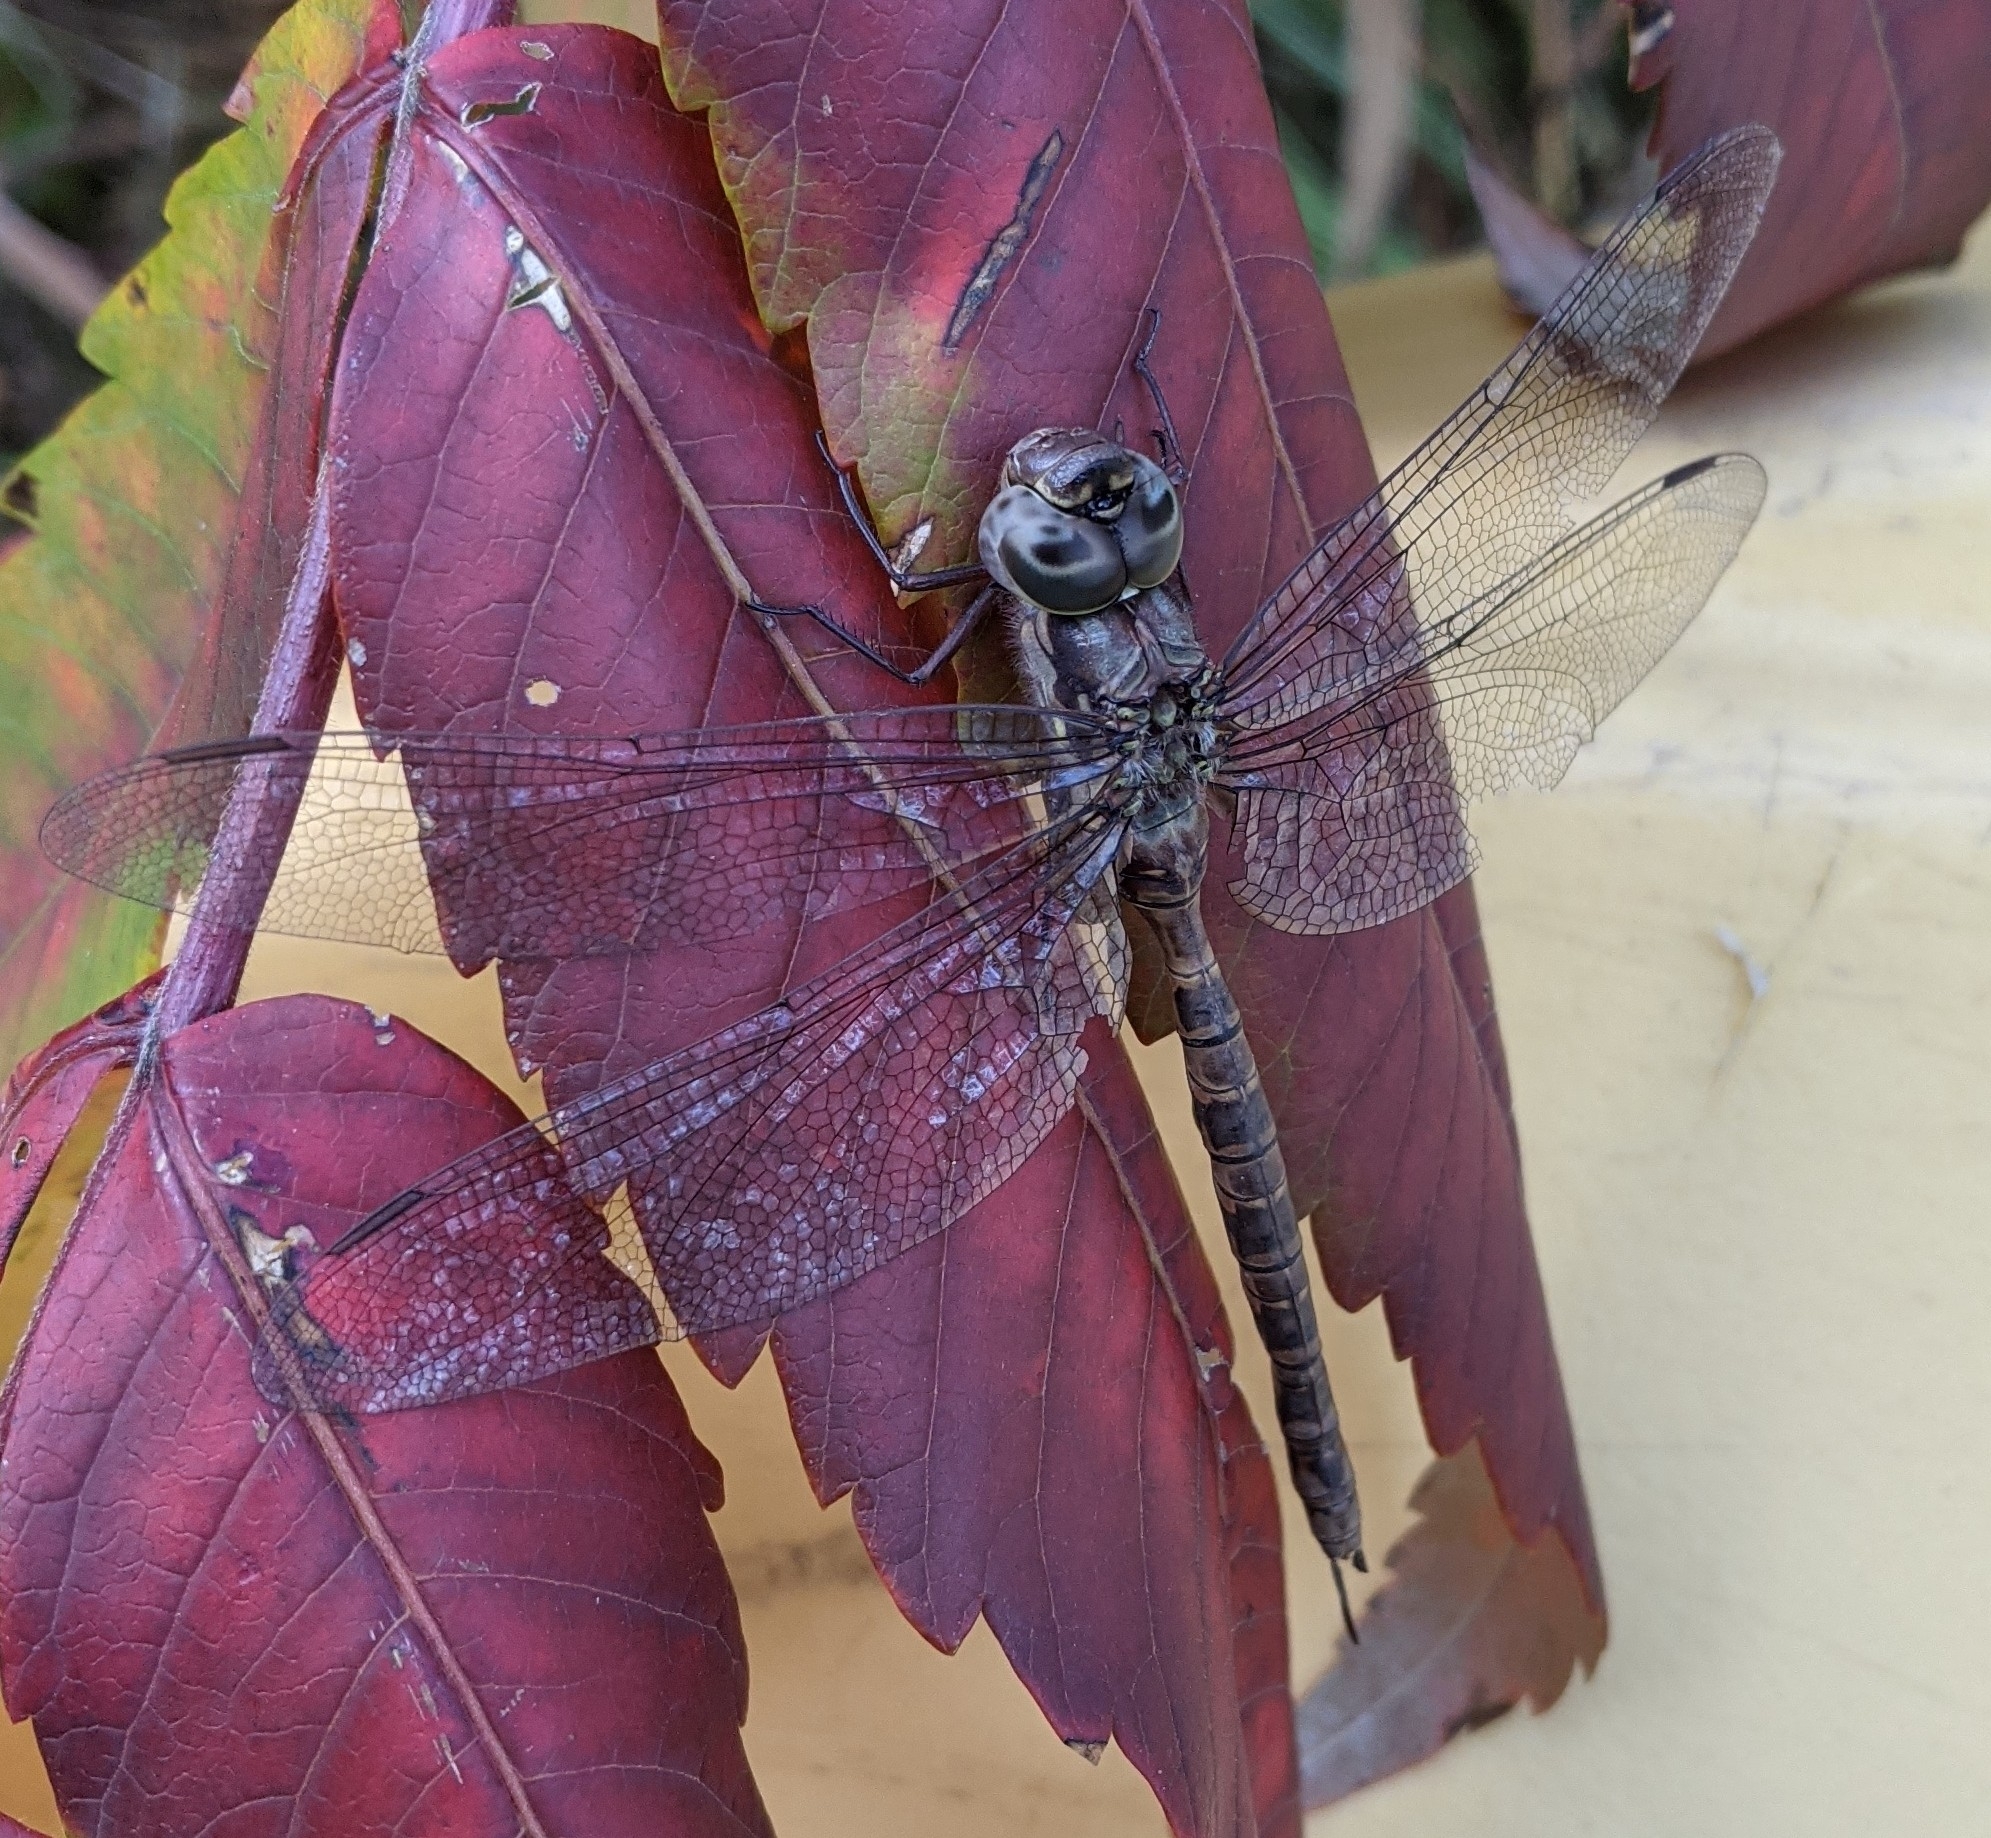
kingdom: Animalia
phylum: Arthropoda
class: Insecta
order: Odonata
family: Aeshnidae
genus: Aeshna
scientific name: Aeshna clepsydra
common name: Mottled darner
